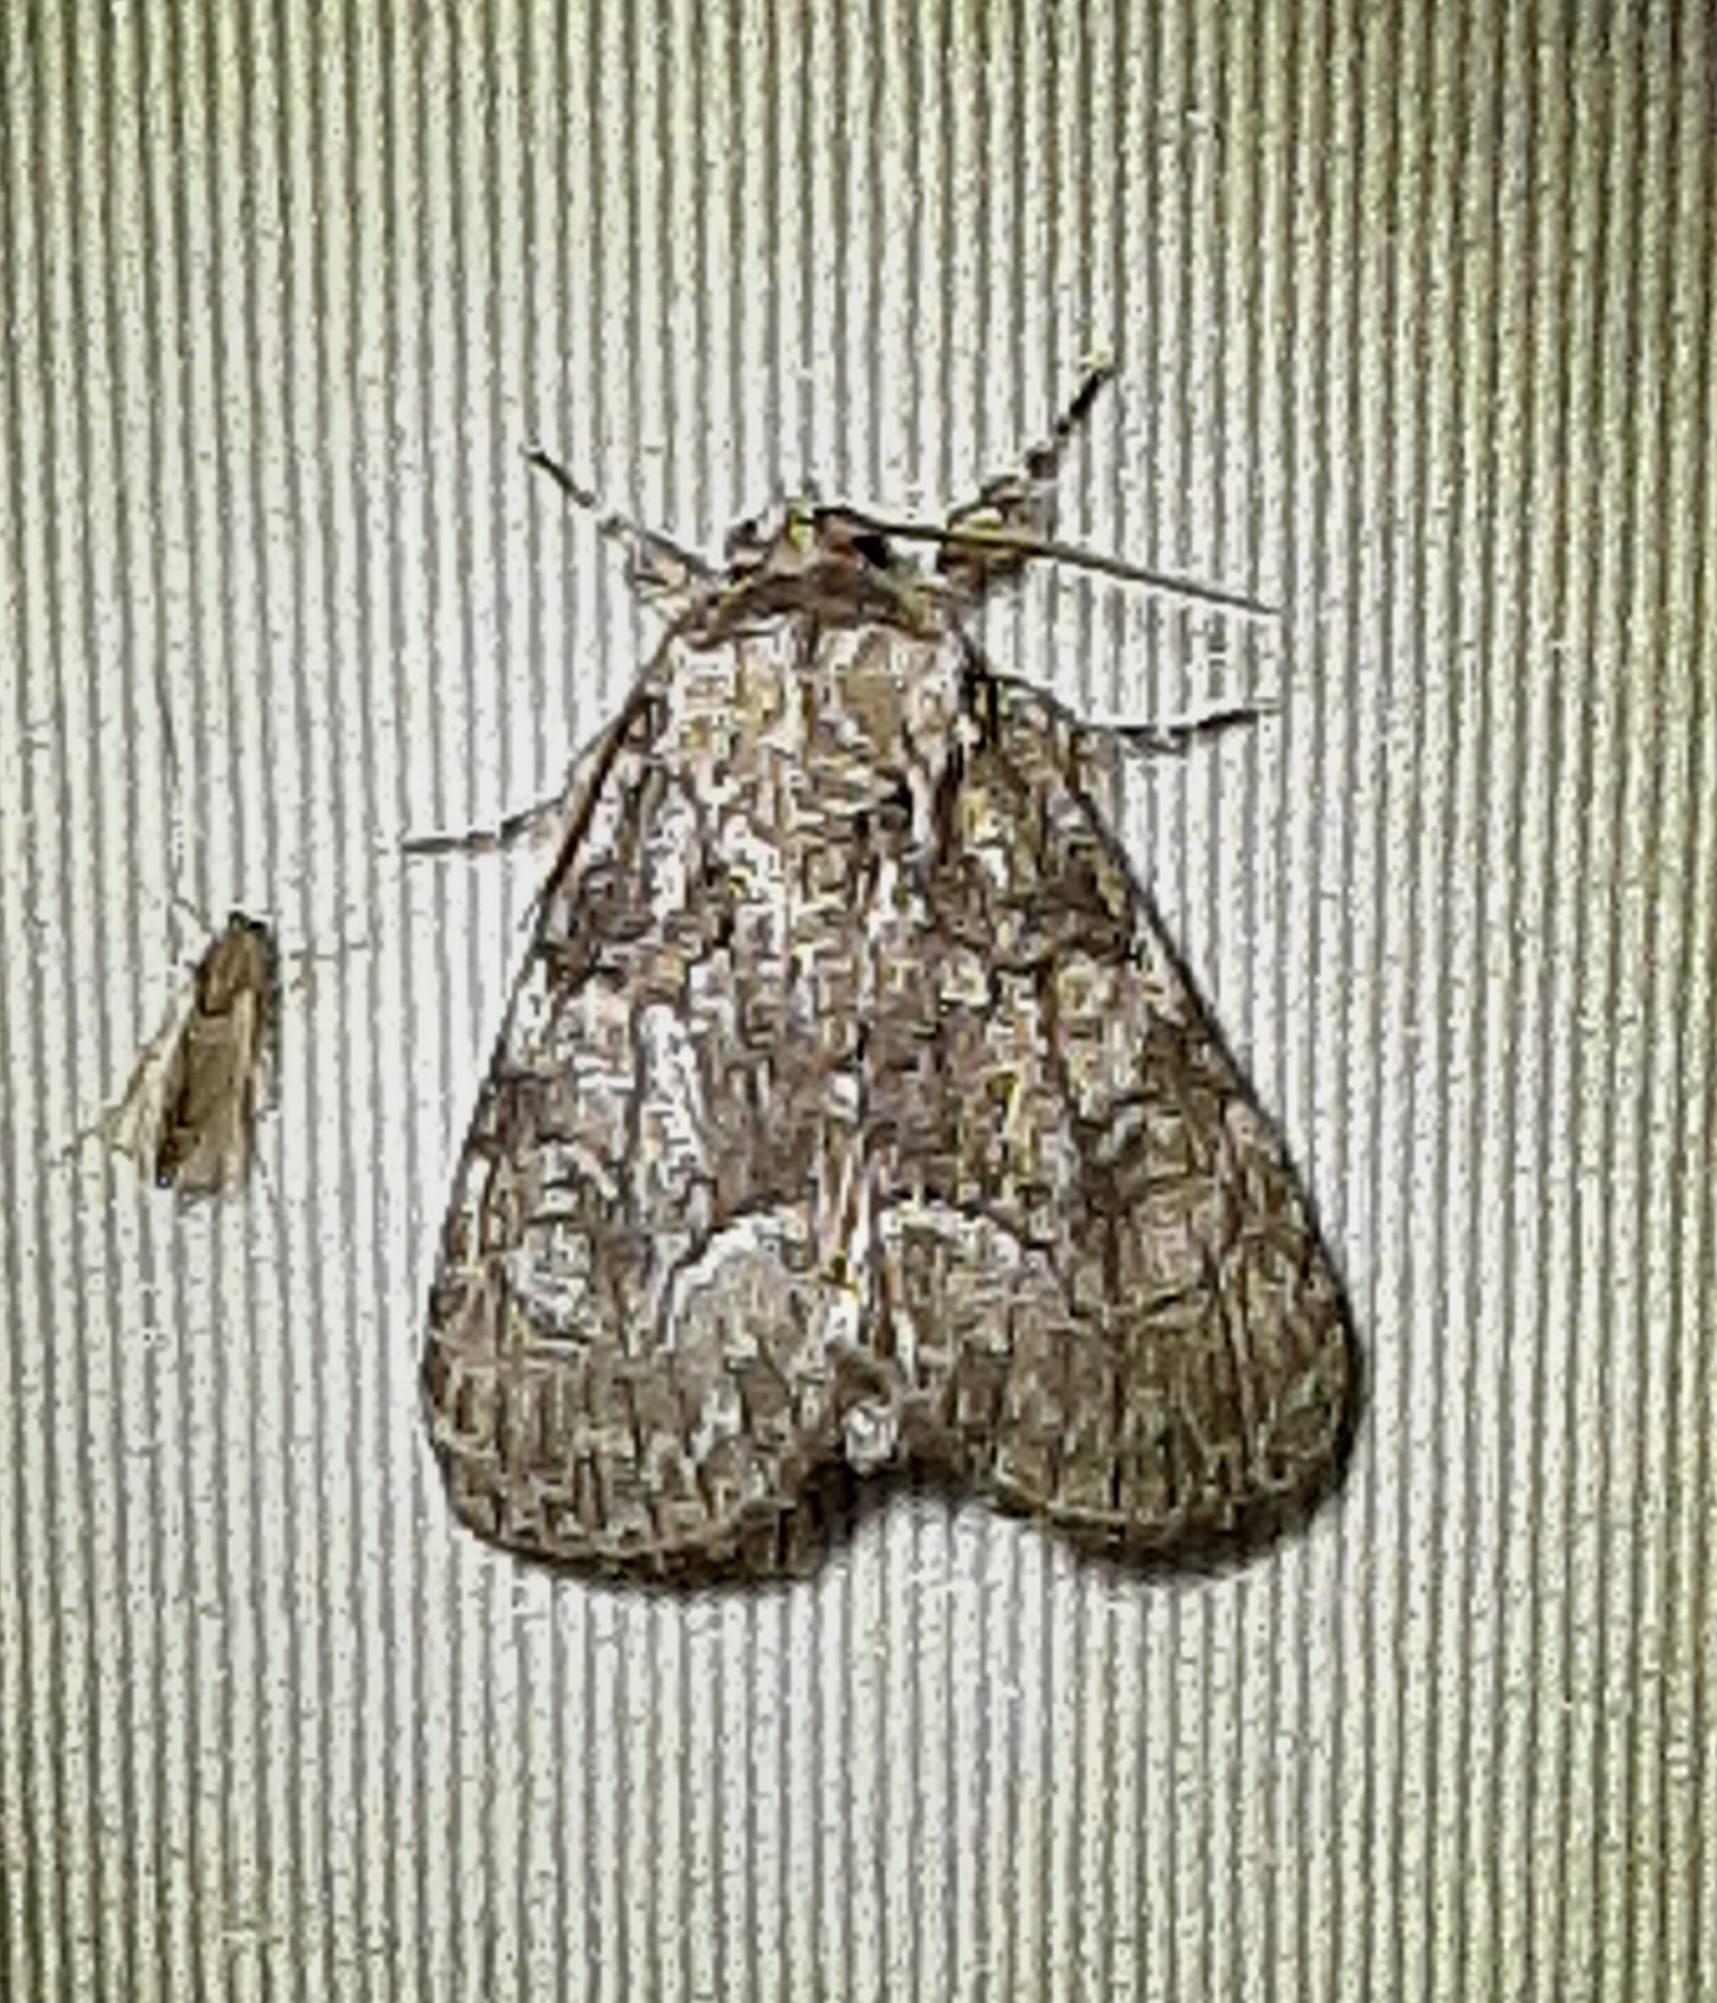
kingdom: Animalia
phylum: Arthropoda
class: Insecta
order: Lepidoptera
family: Noctuidae
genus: Raphia
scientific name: Raphia frater
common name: Brother
